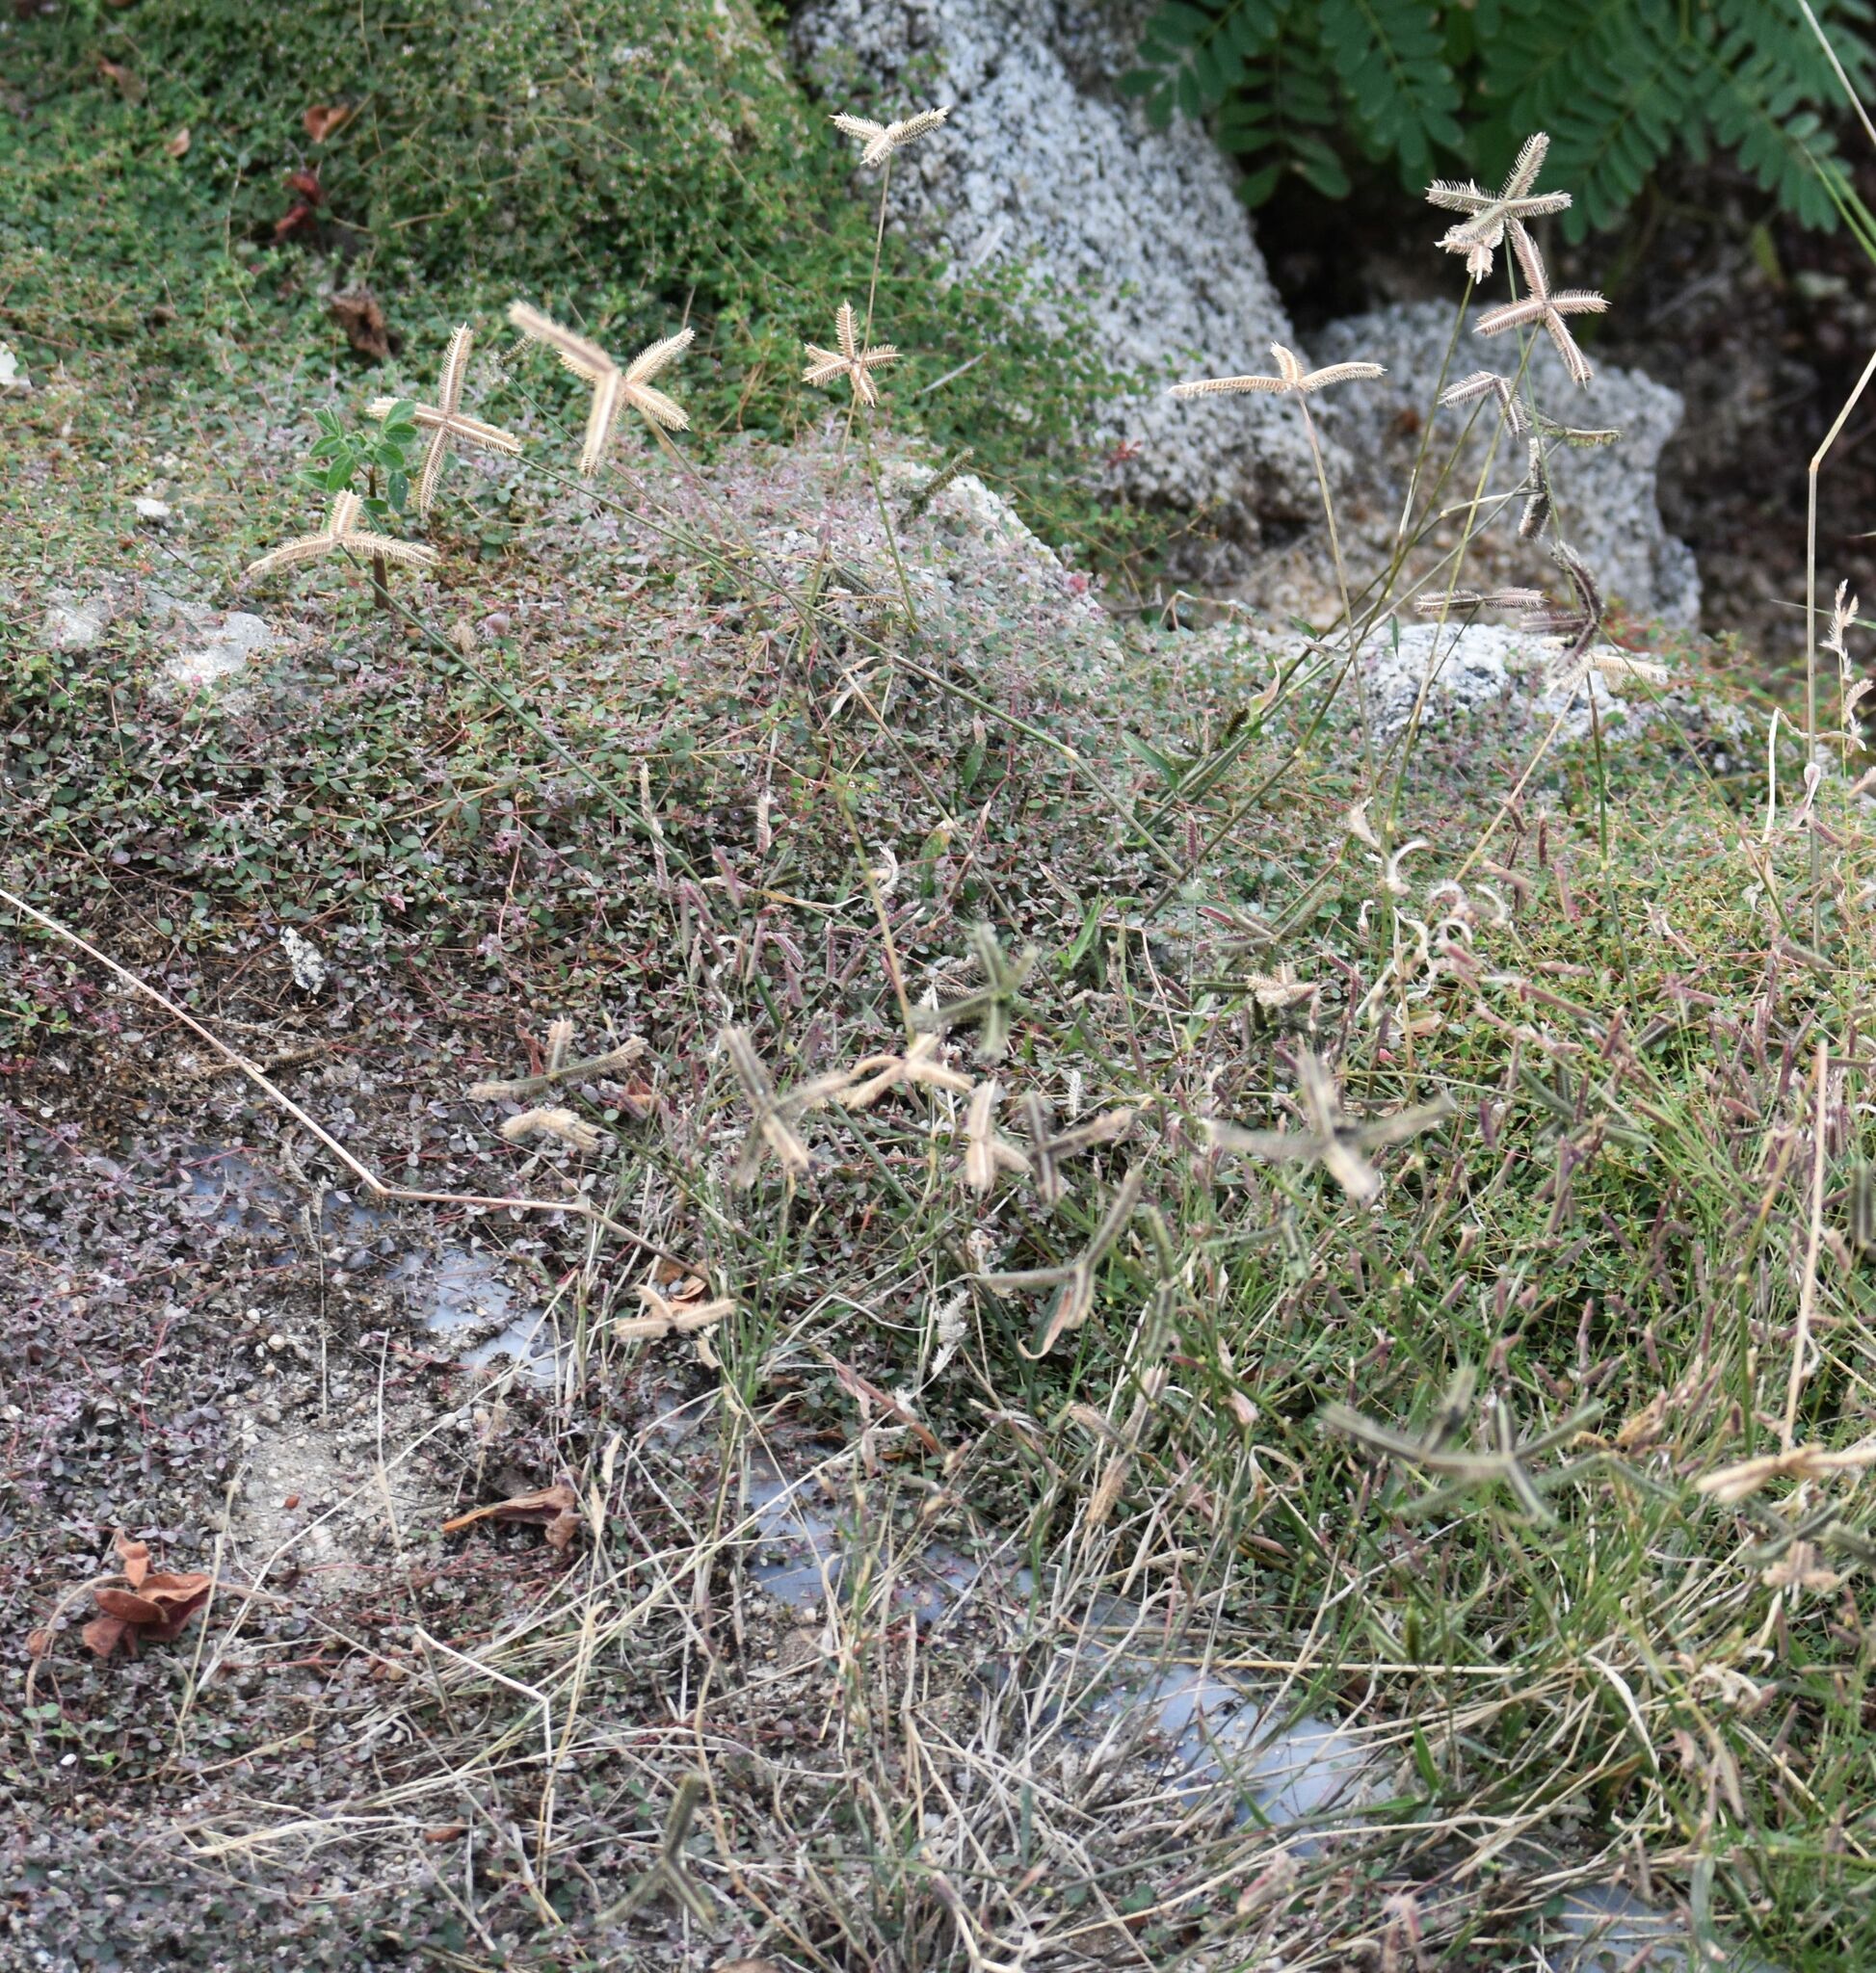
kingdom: Plantae
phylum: Tracheophyta
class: Liliopsida
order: Poales
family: Poaceae
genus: Dactyloctenium
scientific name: Dactyloctenium aegyptium
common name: Egyptian grass
